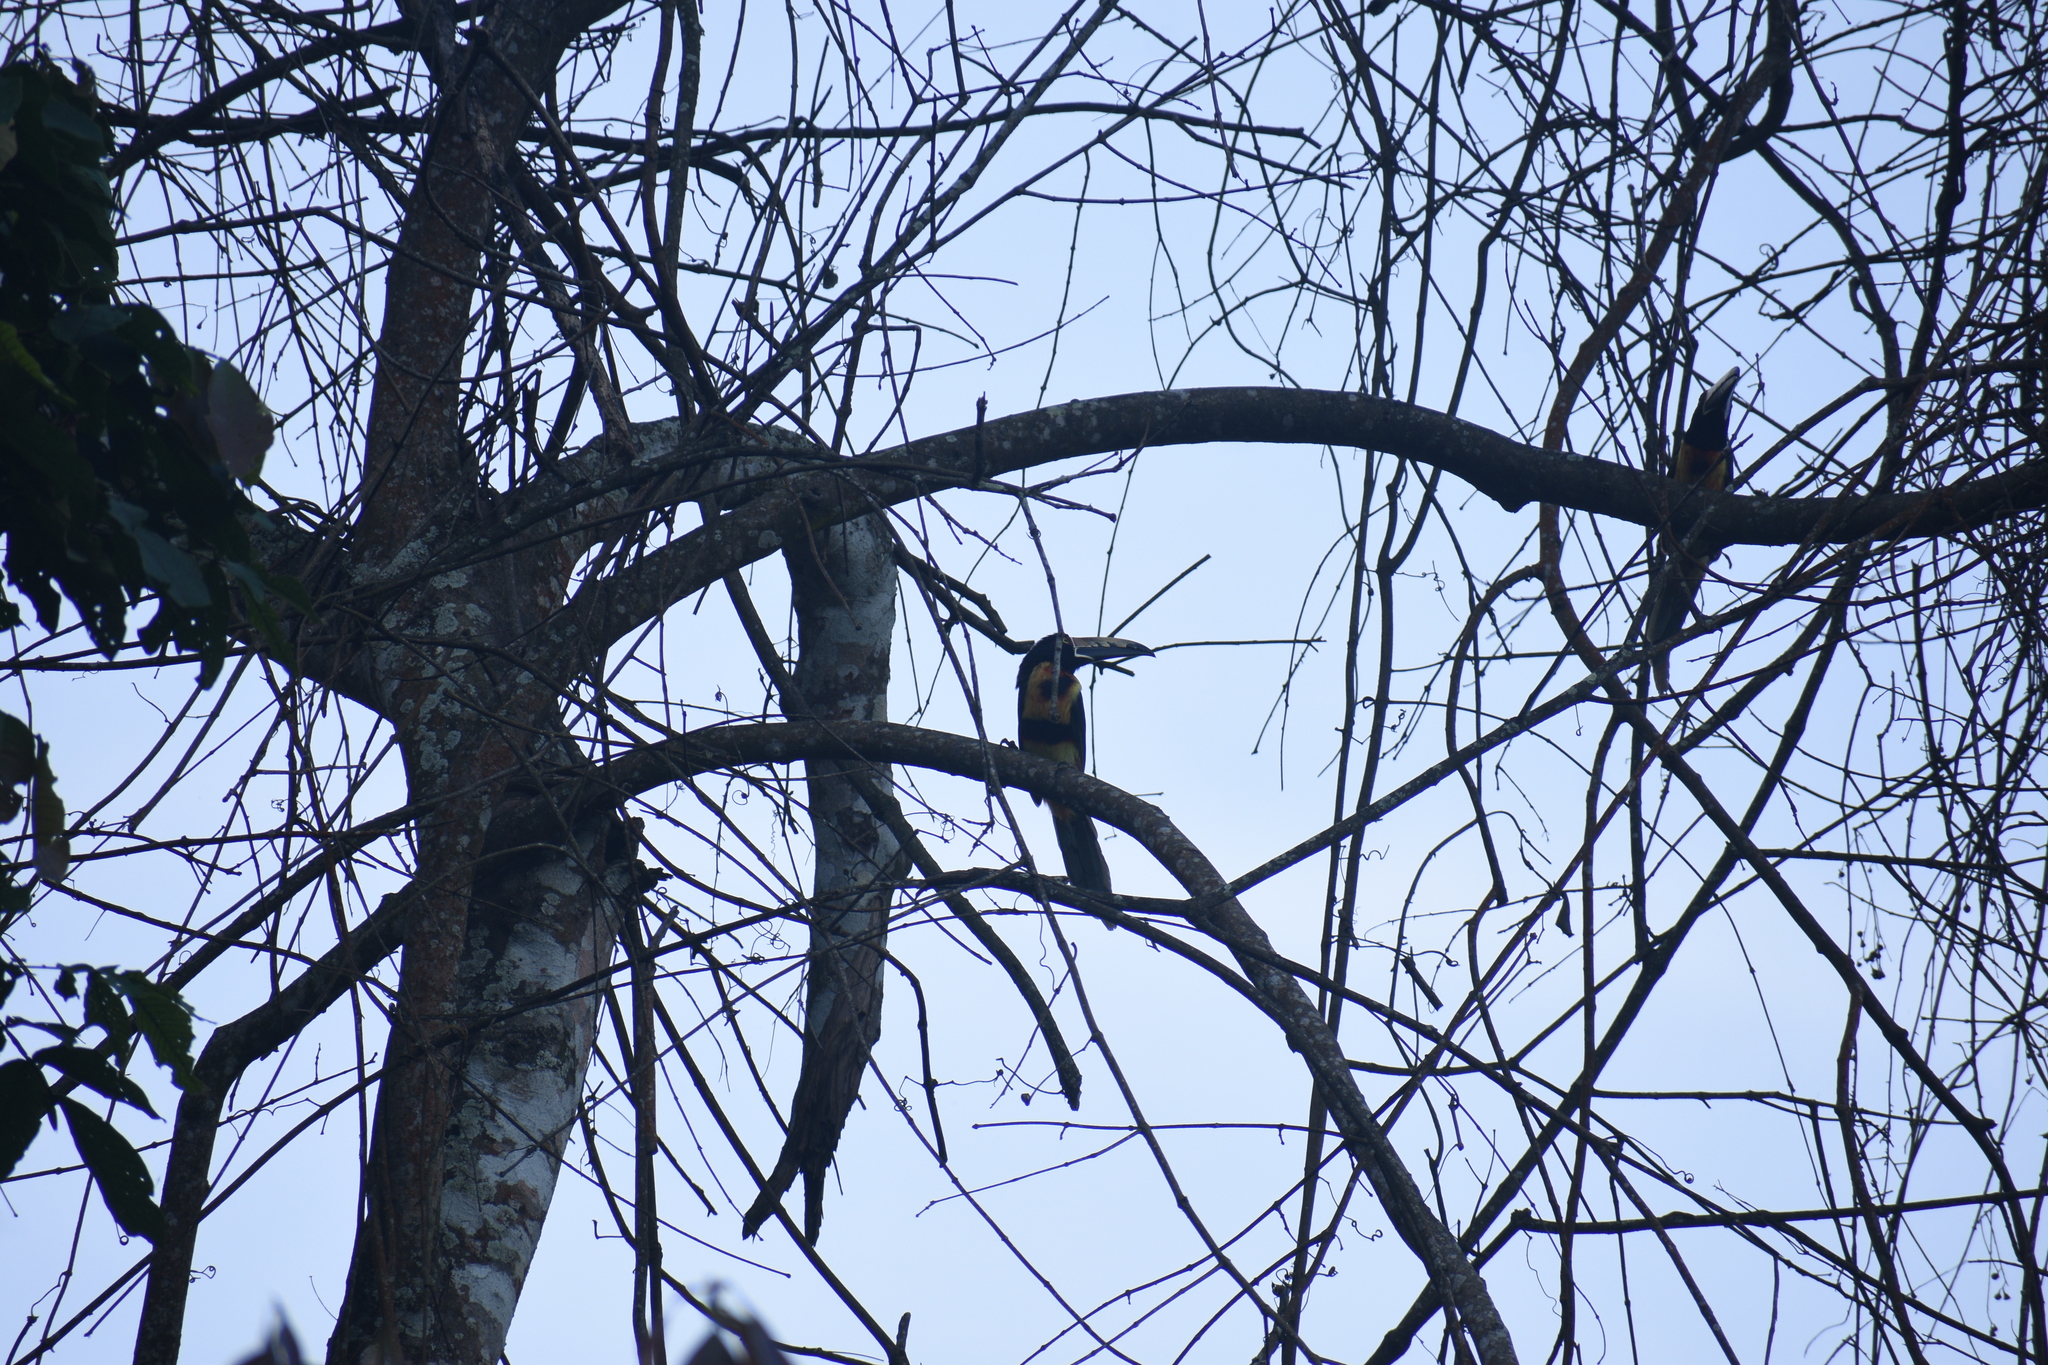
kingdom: Animalia
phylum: Chordata
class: Aves
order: Piciformes
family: Ramphastidae
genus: Pteroglossus
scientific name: Pteroglossus torquatus
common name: Collared aracari
